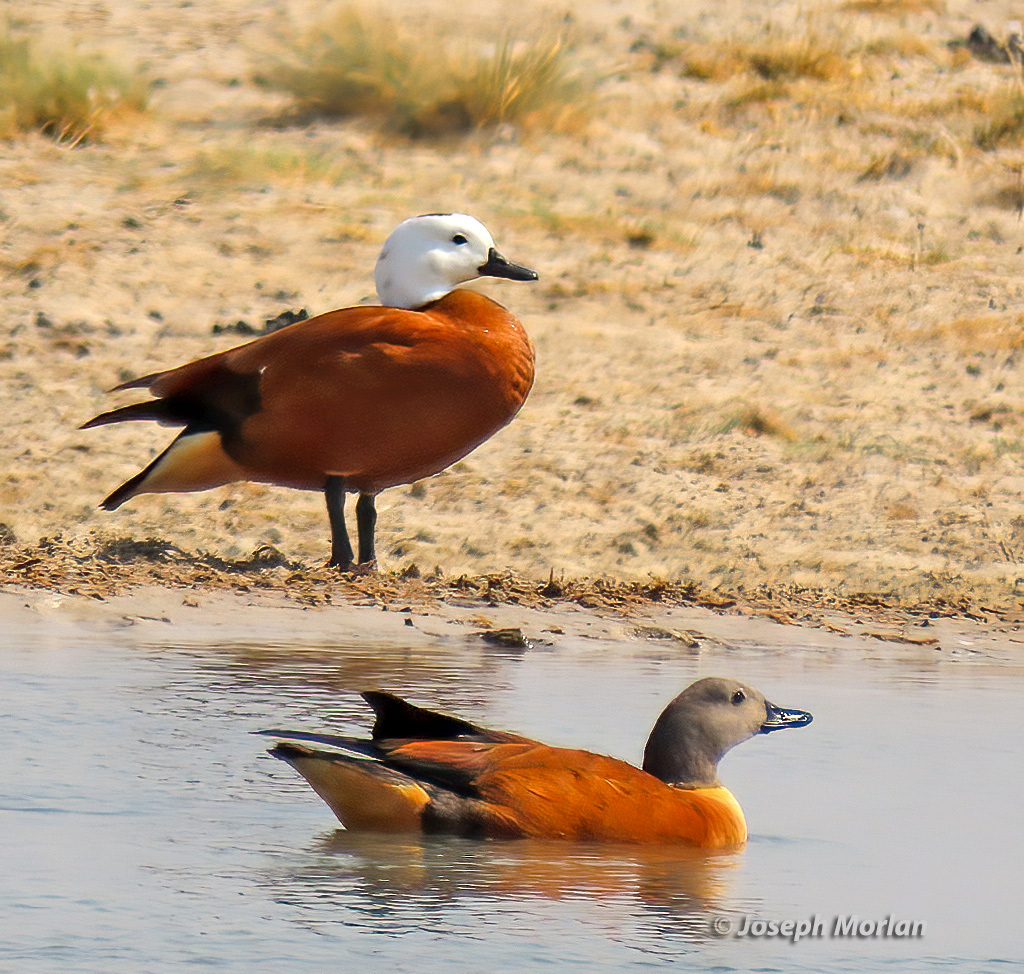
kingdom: Animalia
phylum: Chordata
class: Aves
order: Anseriformes
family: Anatidae
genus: Tadorna
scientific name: Tadorna cana
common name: South african shelduck
